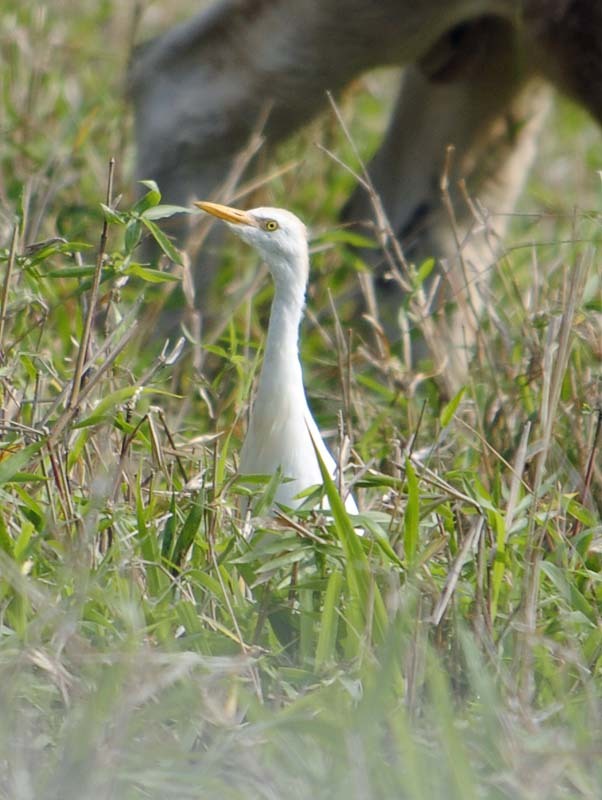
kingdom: Animalia
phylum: Chordata
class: Aves
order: Pelecaniformes
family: Ardeidae
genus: Bubulcus
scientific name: Bubulcus ibis
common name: Cattle egret
